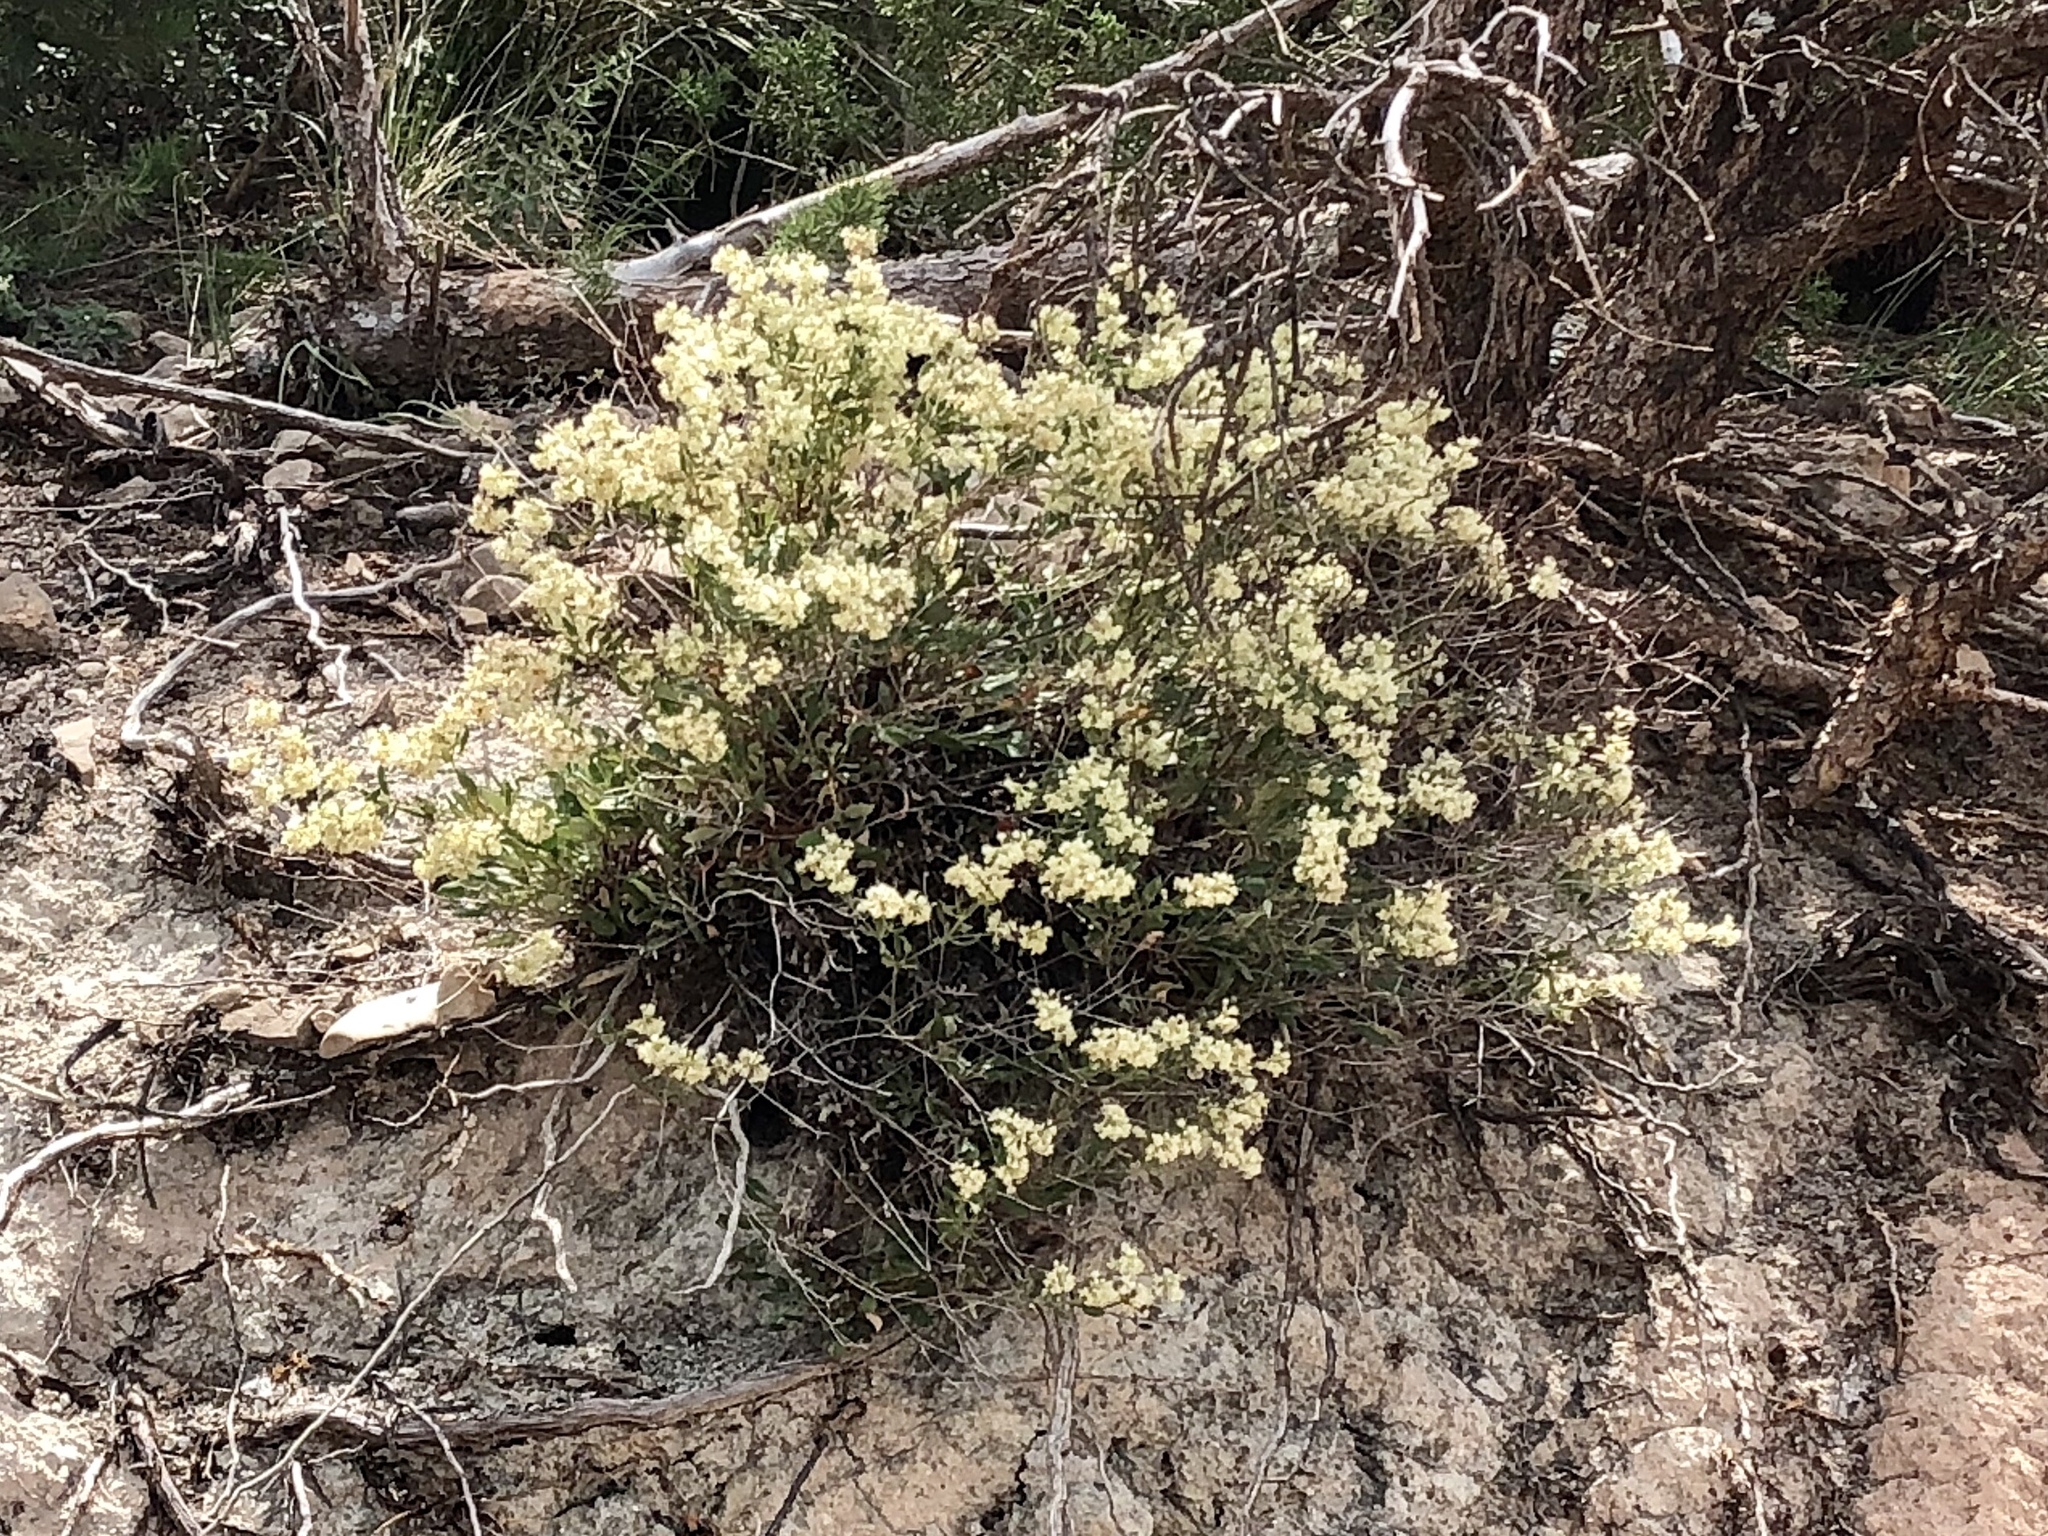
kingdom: Plantae
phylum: Tracheophyta
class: Magnoliopsida
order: Caryophyllales
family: Polygonaceae
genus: Eriogonum
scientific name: Eriogonum jamesii
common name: Antelope-sage
